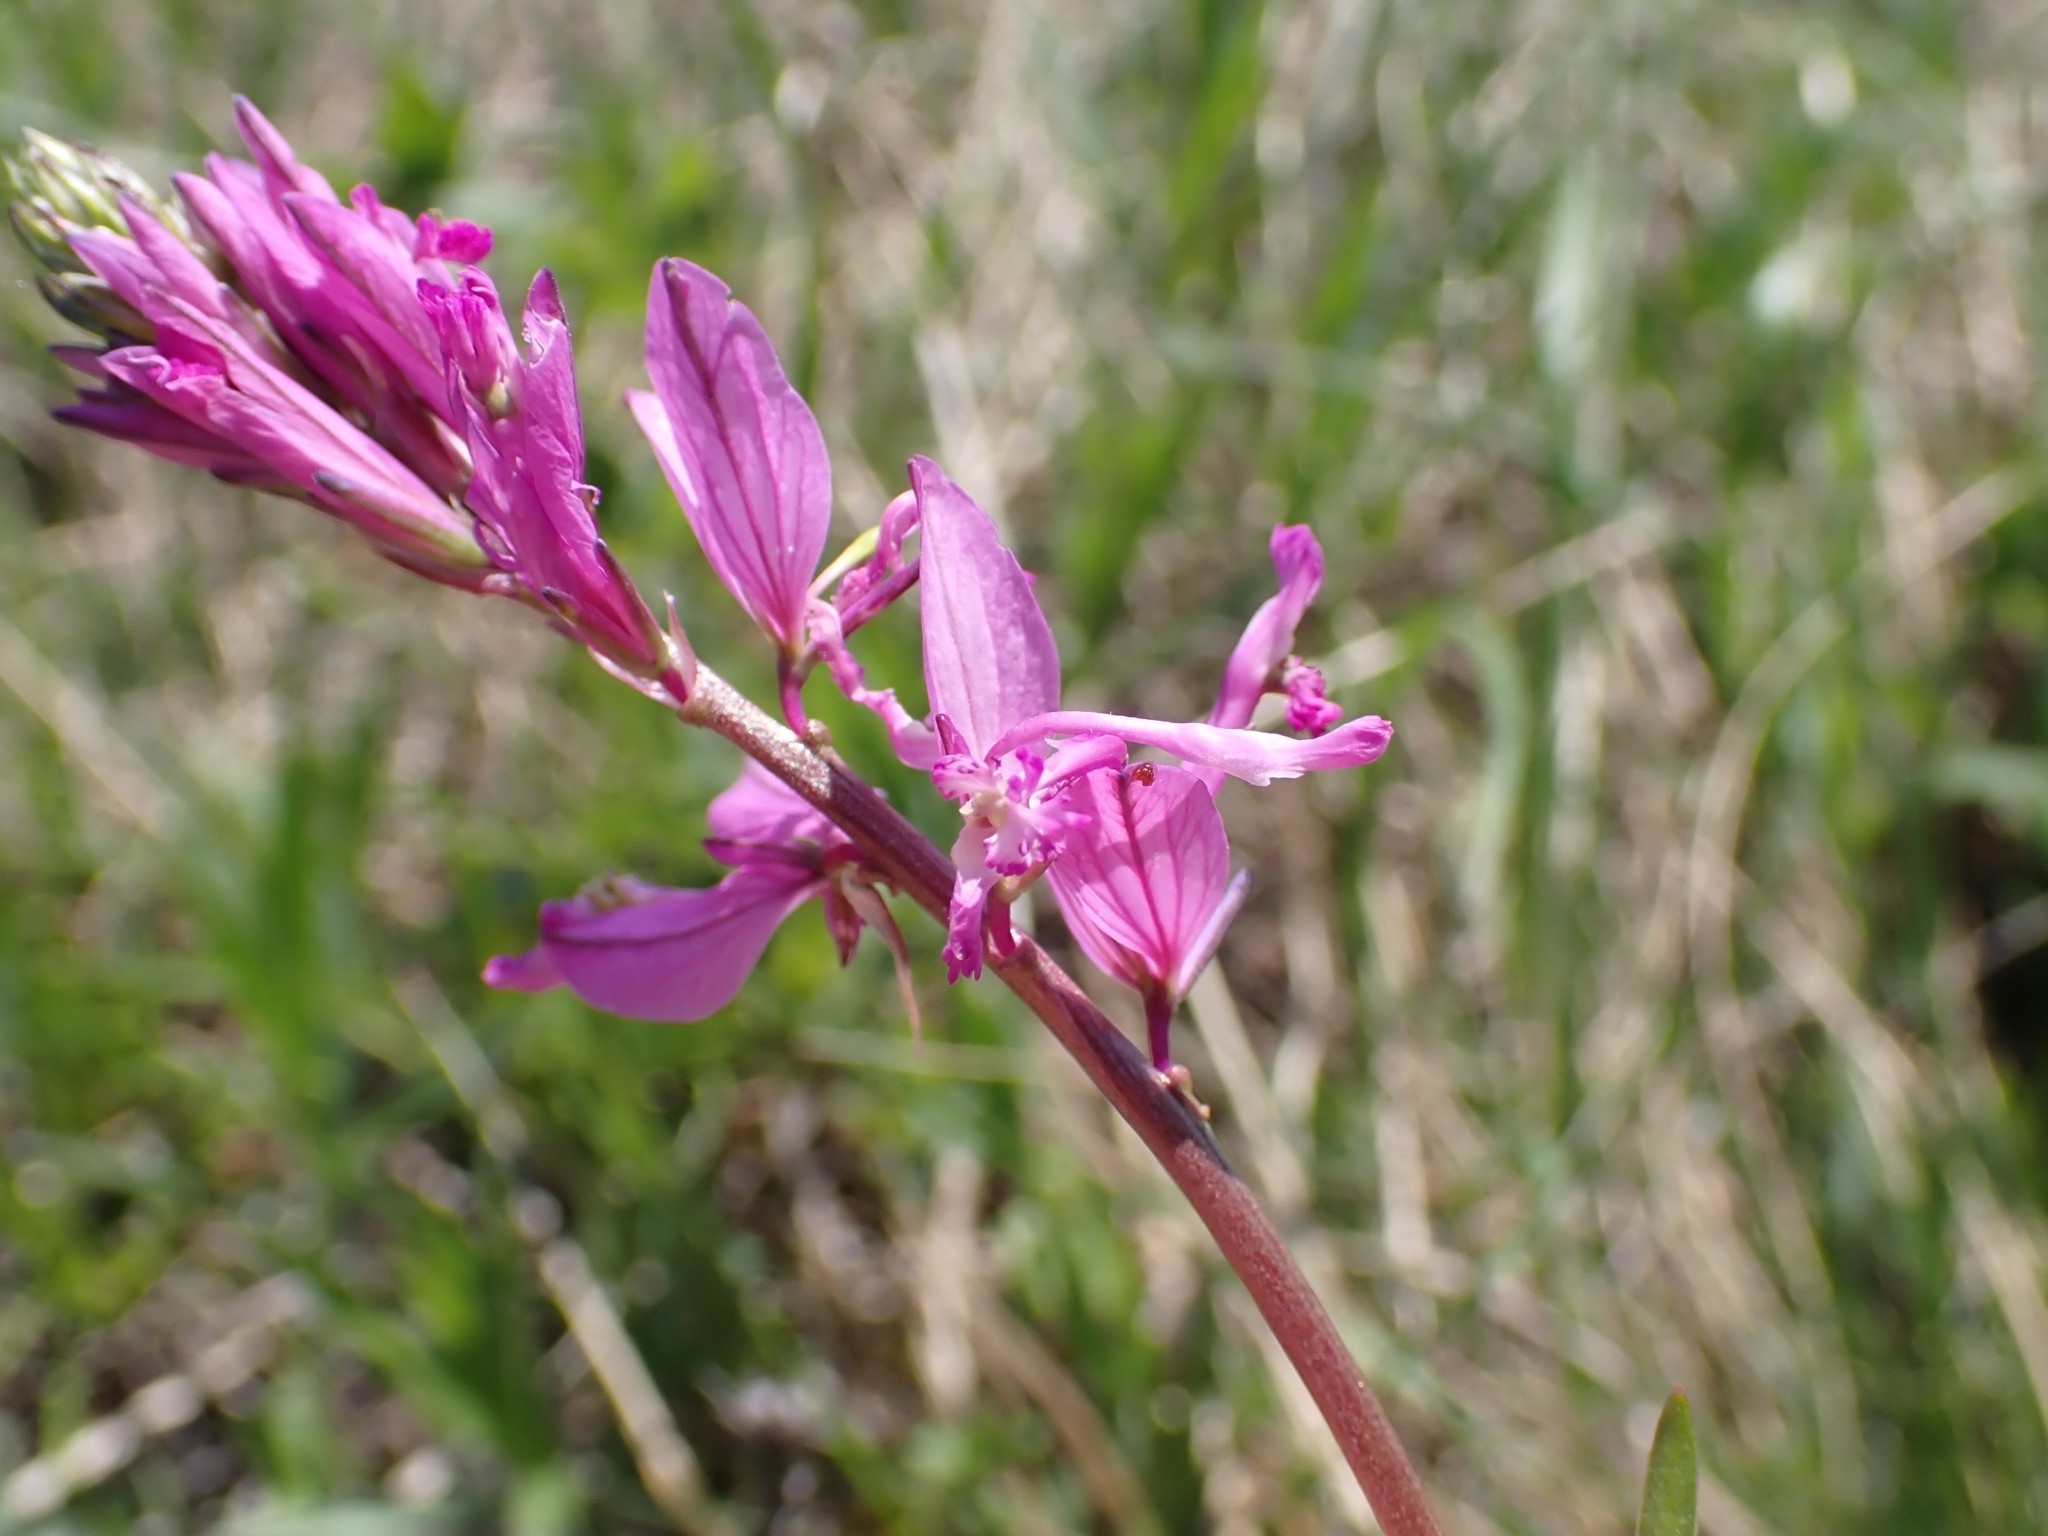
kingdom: Plantae
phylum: Tracheophyta
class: Magnoliopsida
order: Fabales
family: Polygalaceae
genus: Polygala
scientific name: Polygala major
